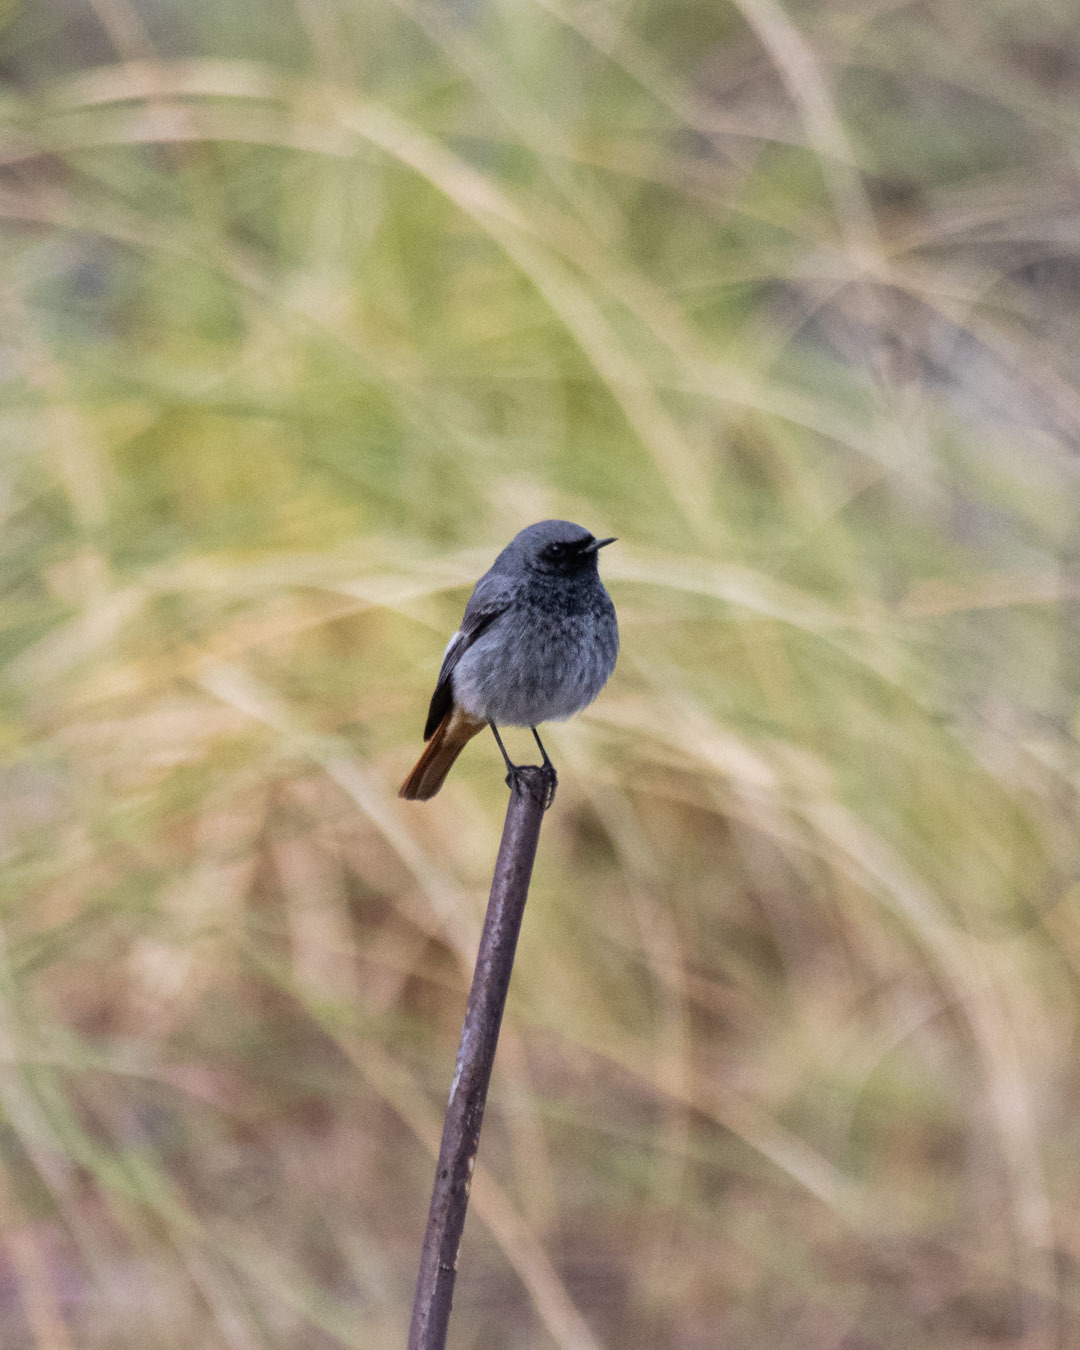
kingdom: Animalia
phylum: Chordata
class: Aves
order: Passeriformes
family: Muscicapidae
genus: Phoenicurus
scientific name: Phoenicurus ochruros
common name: Black redstart
